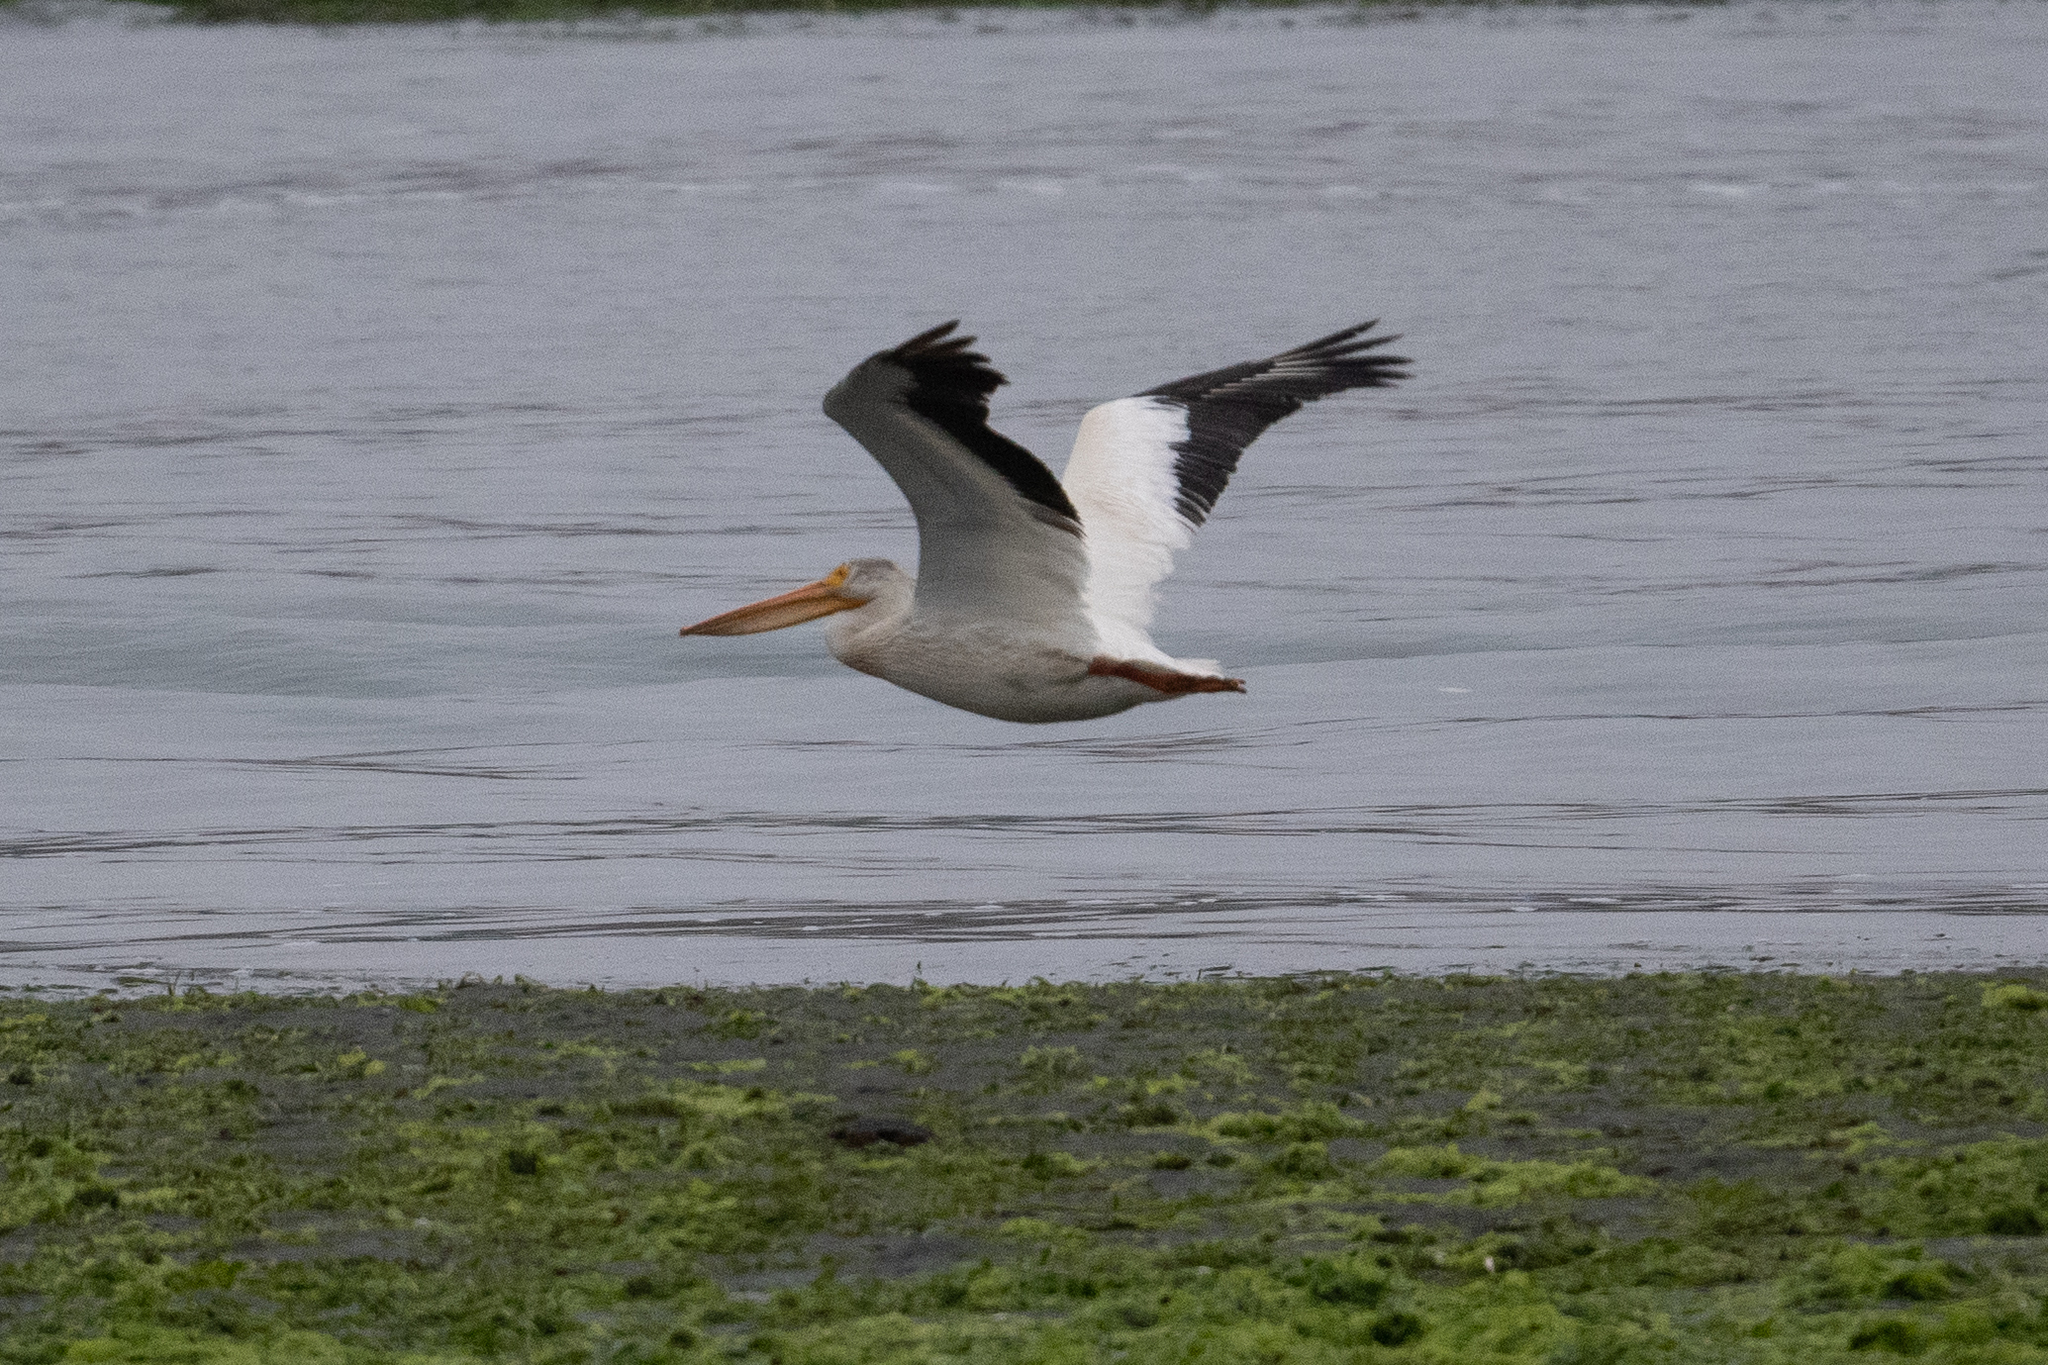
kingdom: Animalia
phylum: Chordata
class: Aves
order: Pelecaniformes
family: Pelecanidae
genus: Pelecanus
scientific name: Pelecanus erythrorhynchos
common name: American white pelican
